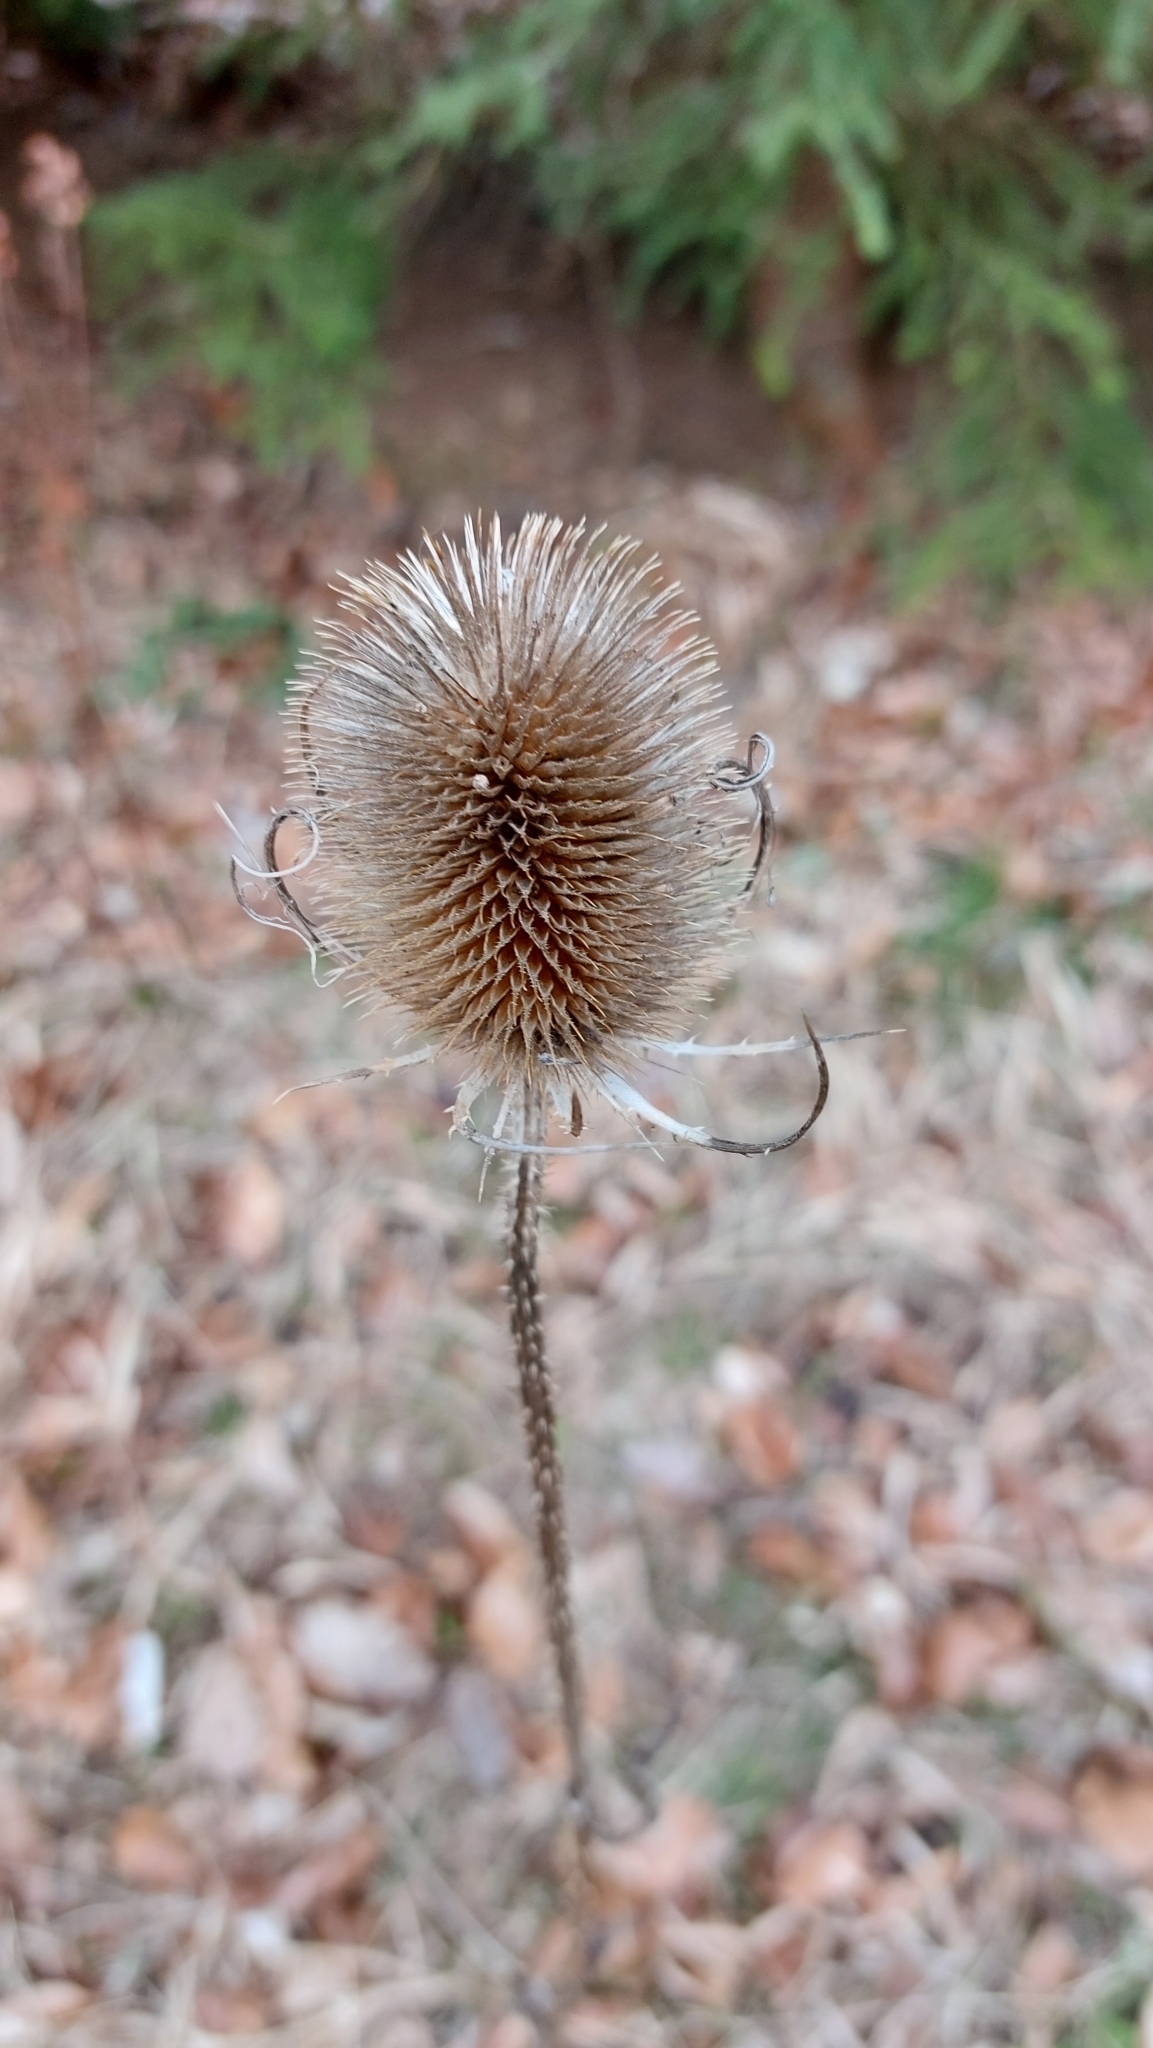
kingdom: Plantae
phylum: Tracheophyta
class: Magnoliopsida
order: Dipsacales
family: Caprifoliaceae
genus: Dipsacus
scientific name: Dipsacus fullonum
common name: Teasel
